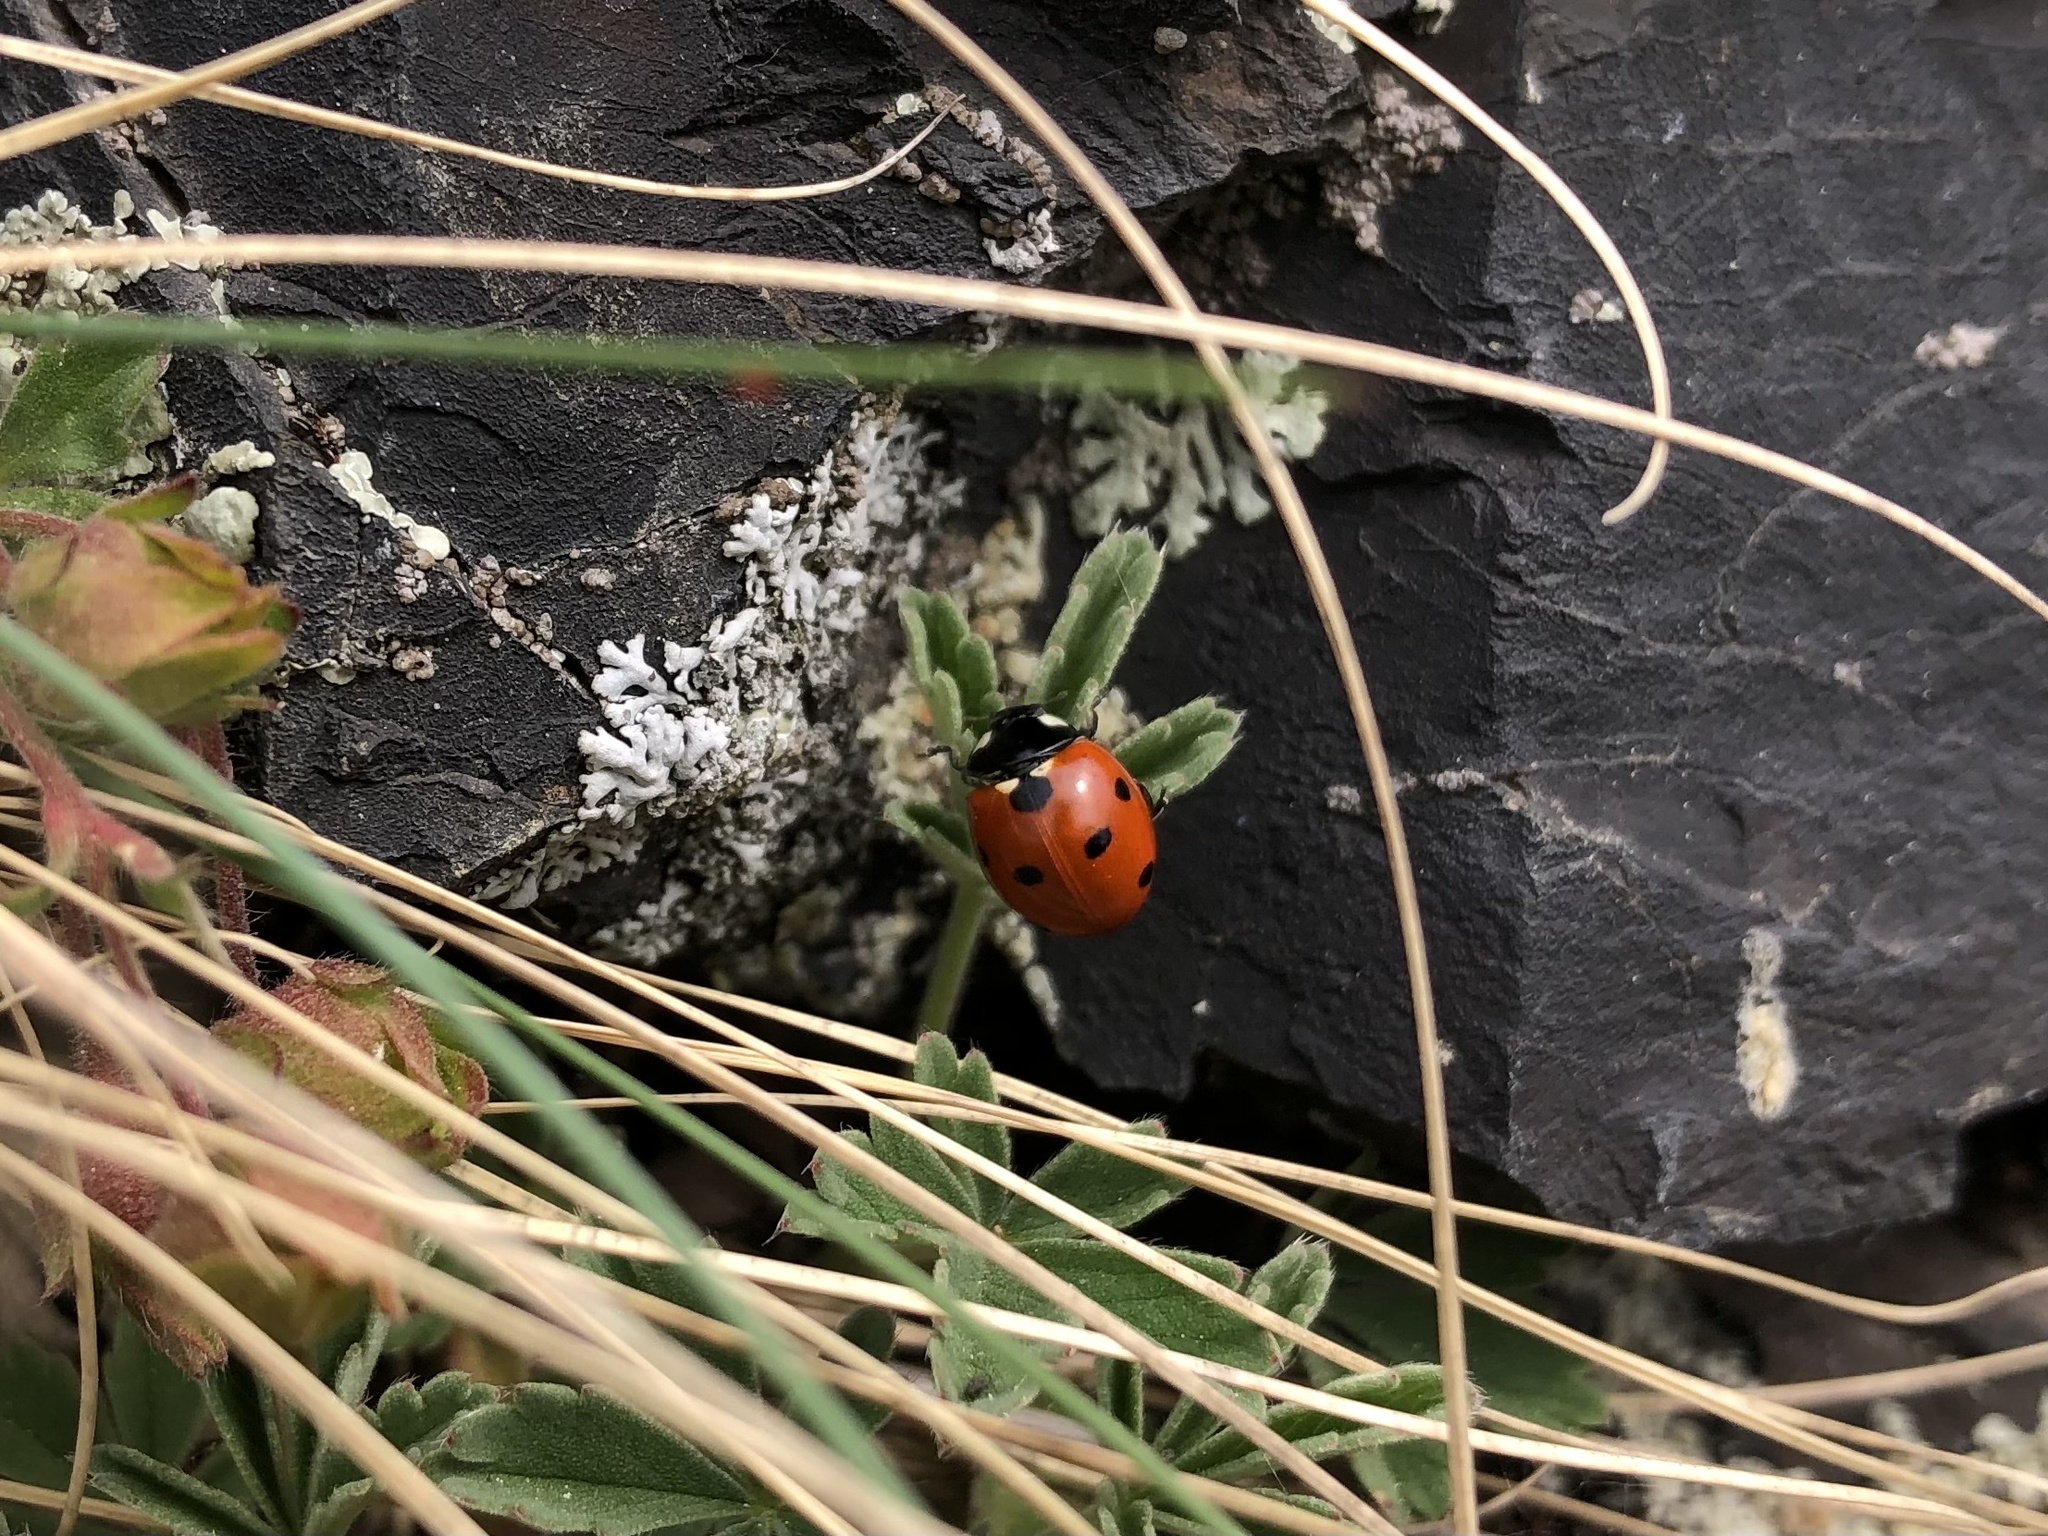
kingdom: Animalia
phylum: Arthropoda
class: Insecta
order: Coleoptera
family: Coccinellidae
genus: Coccinella
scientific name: Coccinella septempunctata
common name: Sevenspotted lady beetle
